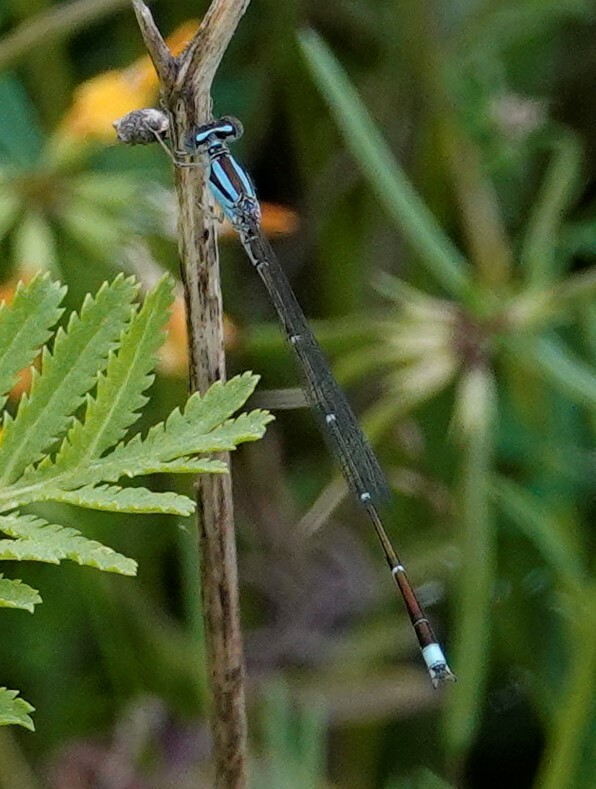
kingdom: Animalia
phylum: Arthropoda
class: Insecta
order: Odonata
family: Coenagrionidae
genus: Enallagma
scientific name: Enallagma signatum
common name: Orange bluet
